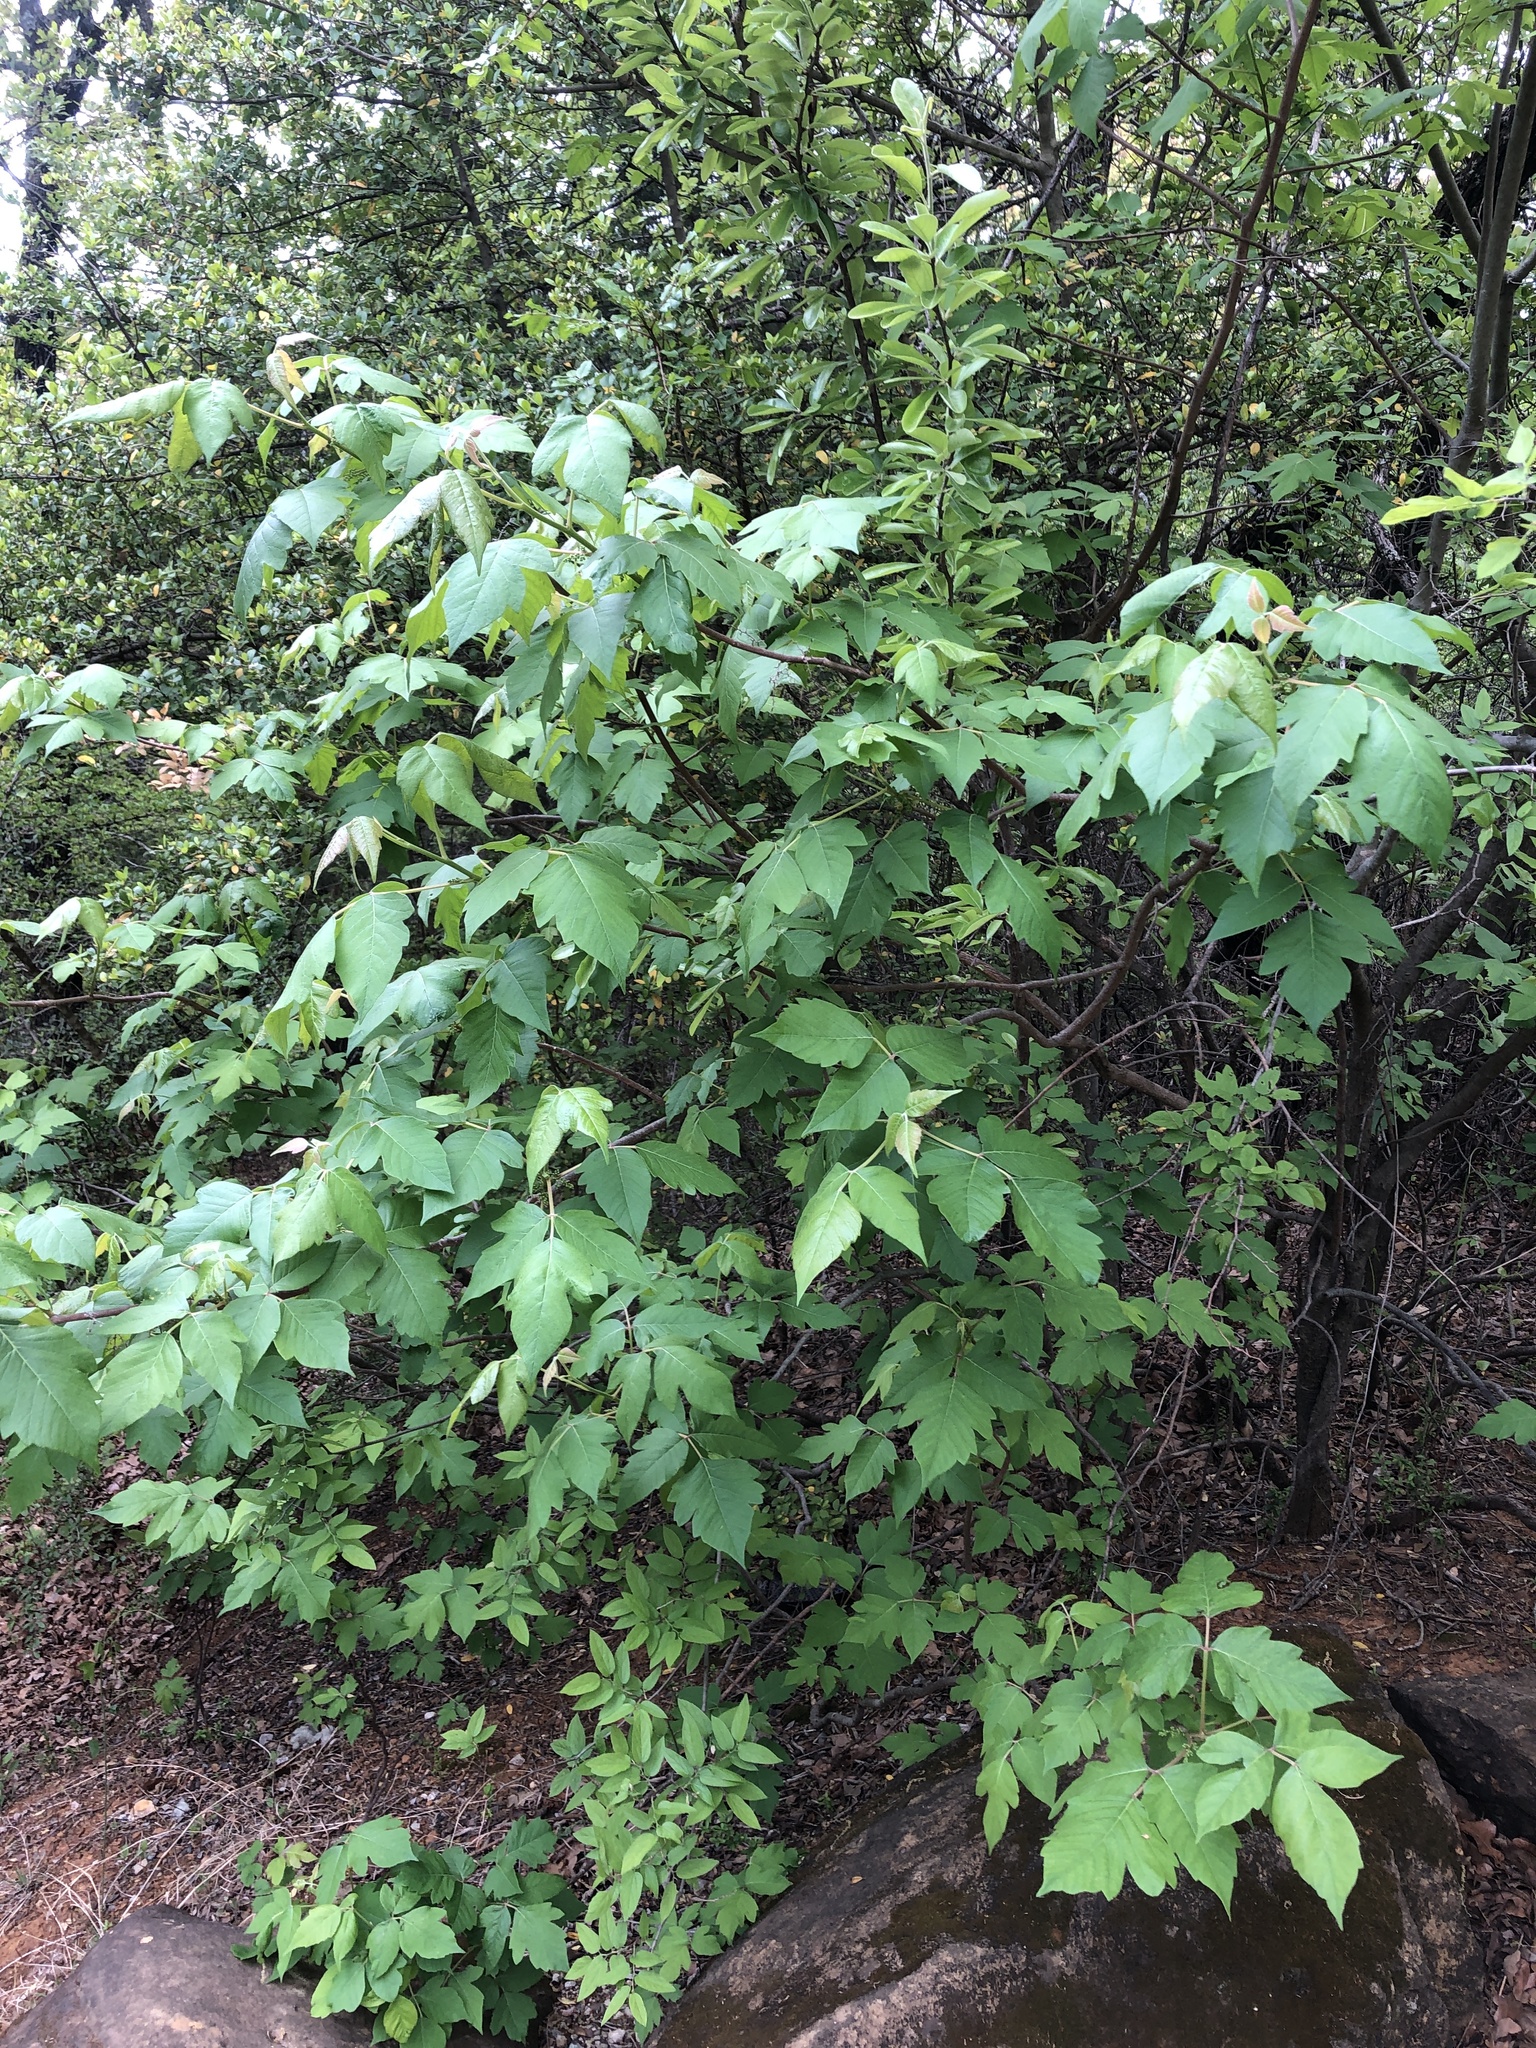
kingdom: Plantae
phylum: Tracheophyta
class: Magnoliopsida
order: Sapindales
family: Anacardiaceae
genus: Toxicodendron
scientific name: Toxicodendron radicans
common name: Poison ivy
